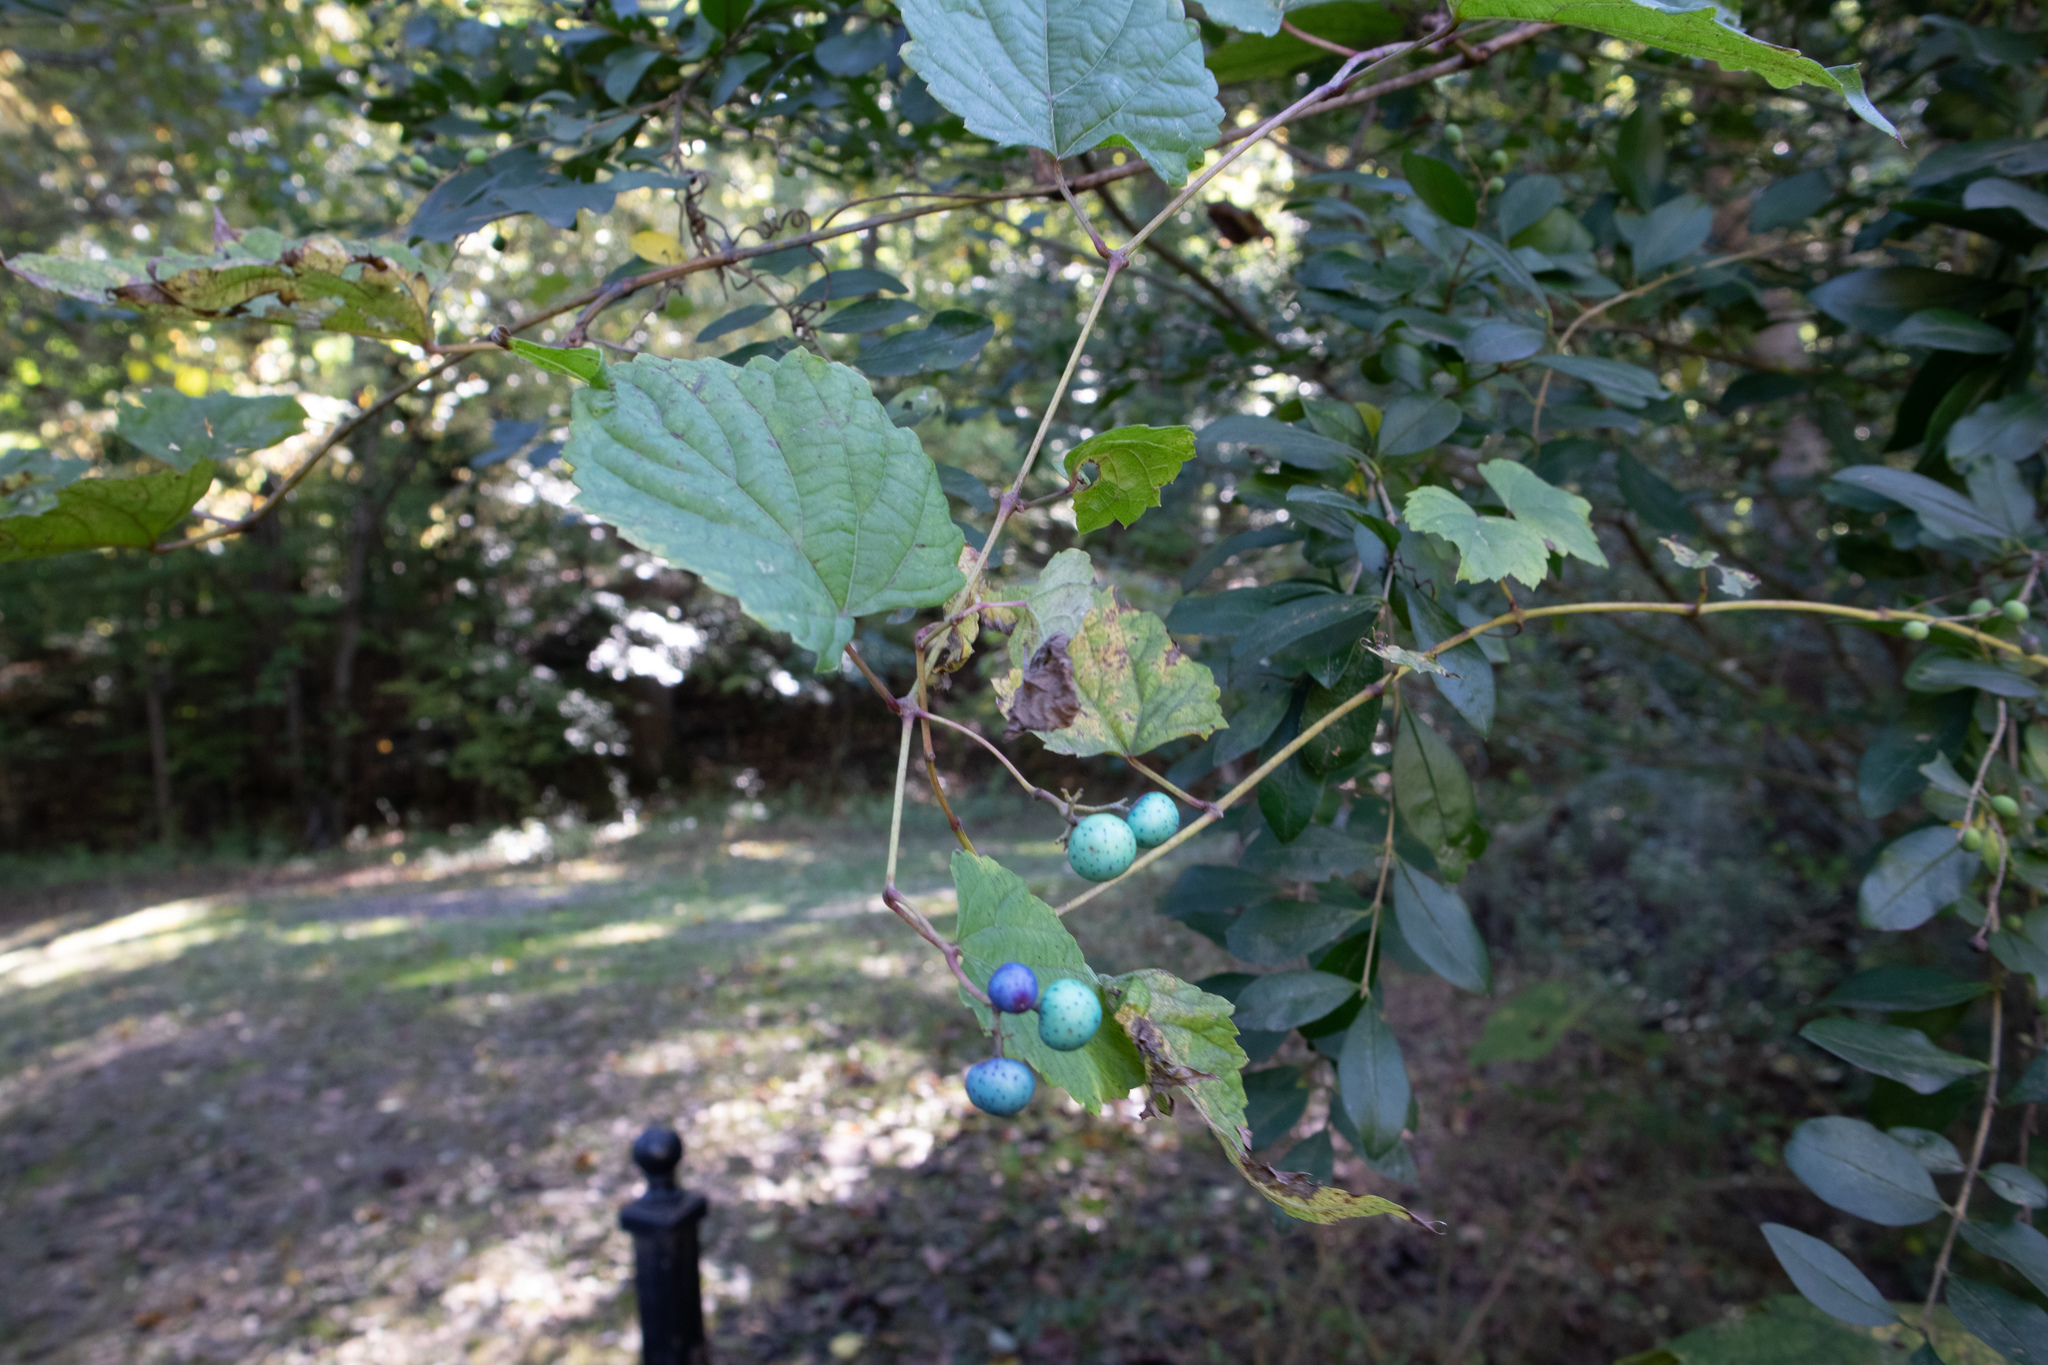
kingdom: Plantae
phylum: Tracheophyta
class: Magnoliopsida
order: Vitales
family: Vitaceae
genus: Ampelopsis
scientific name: Ampelopsis glandulosa
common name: Amur peppervine
